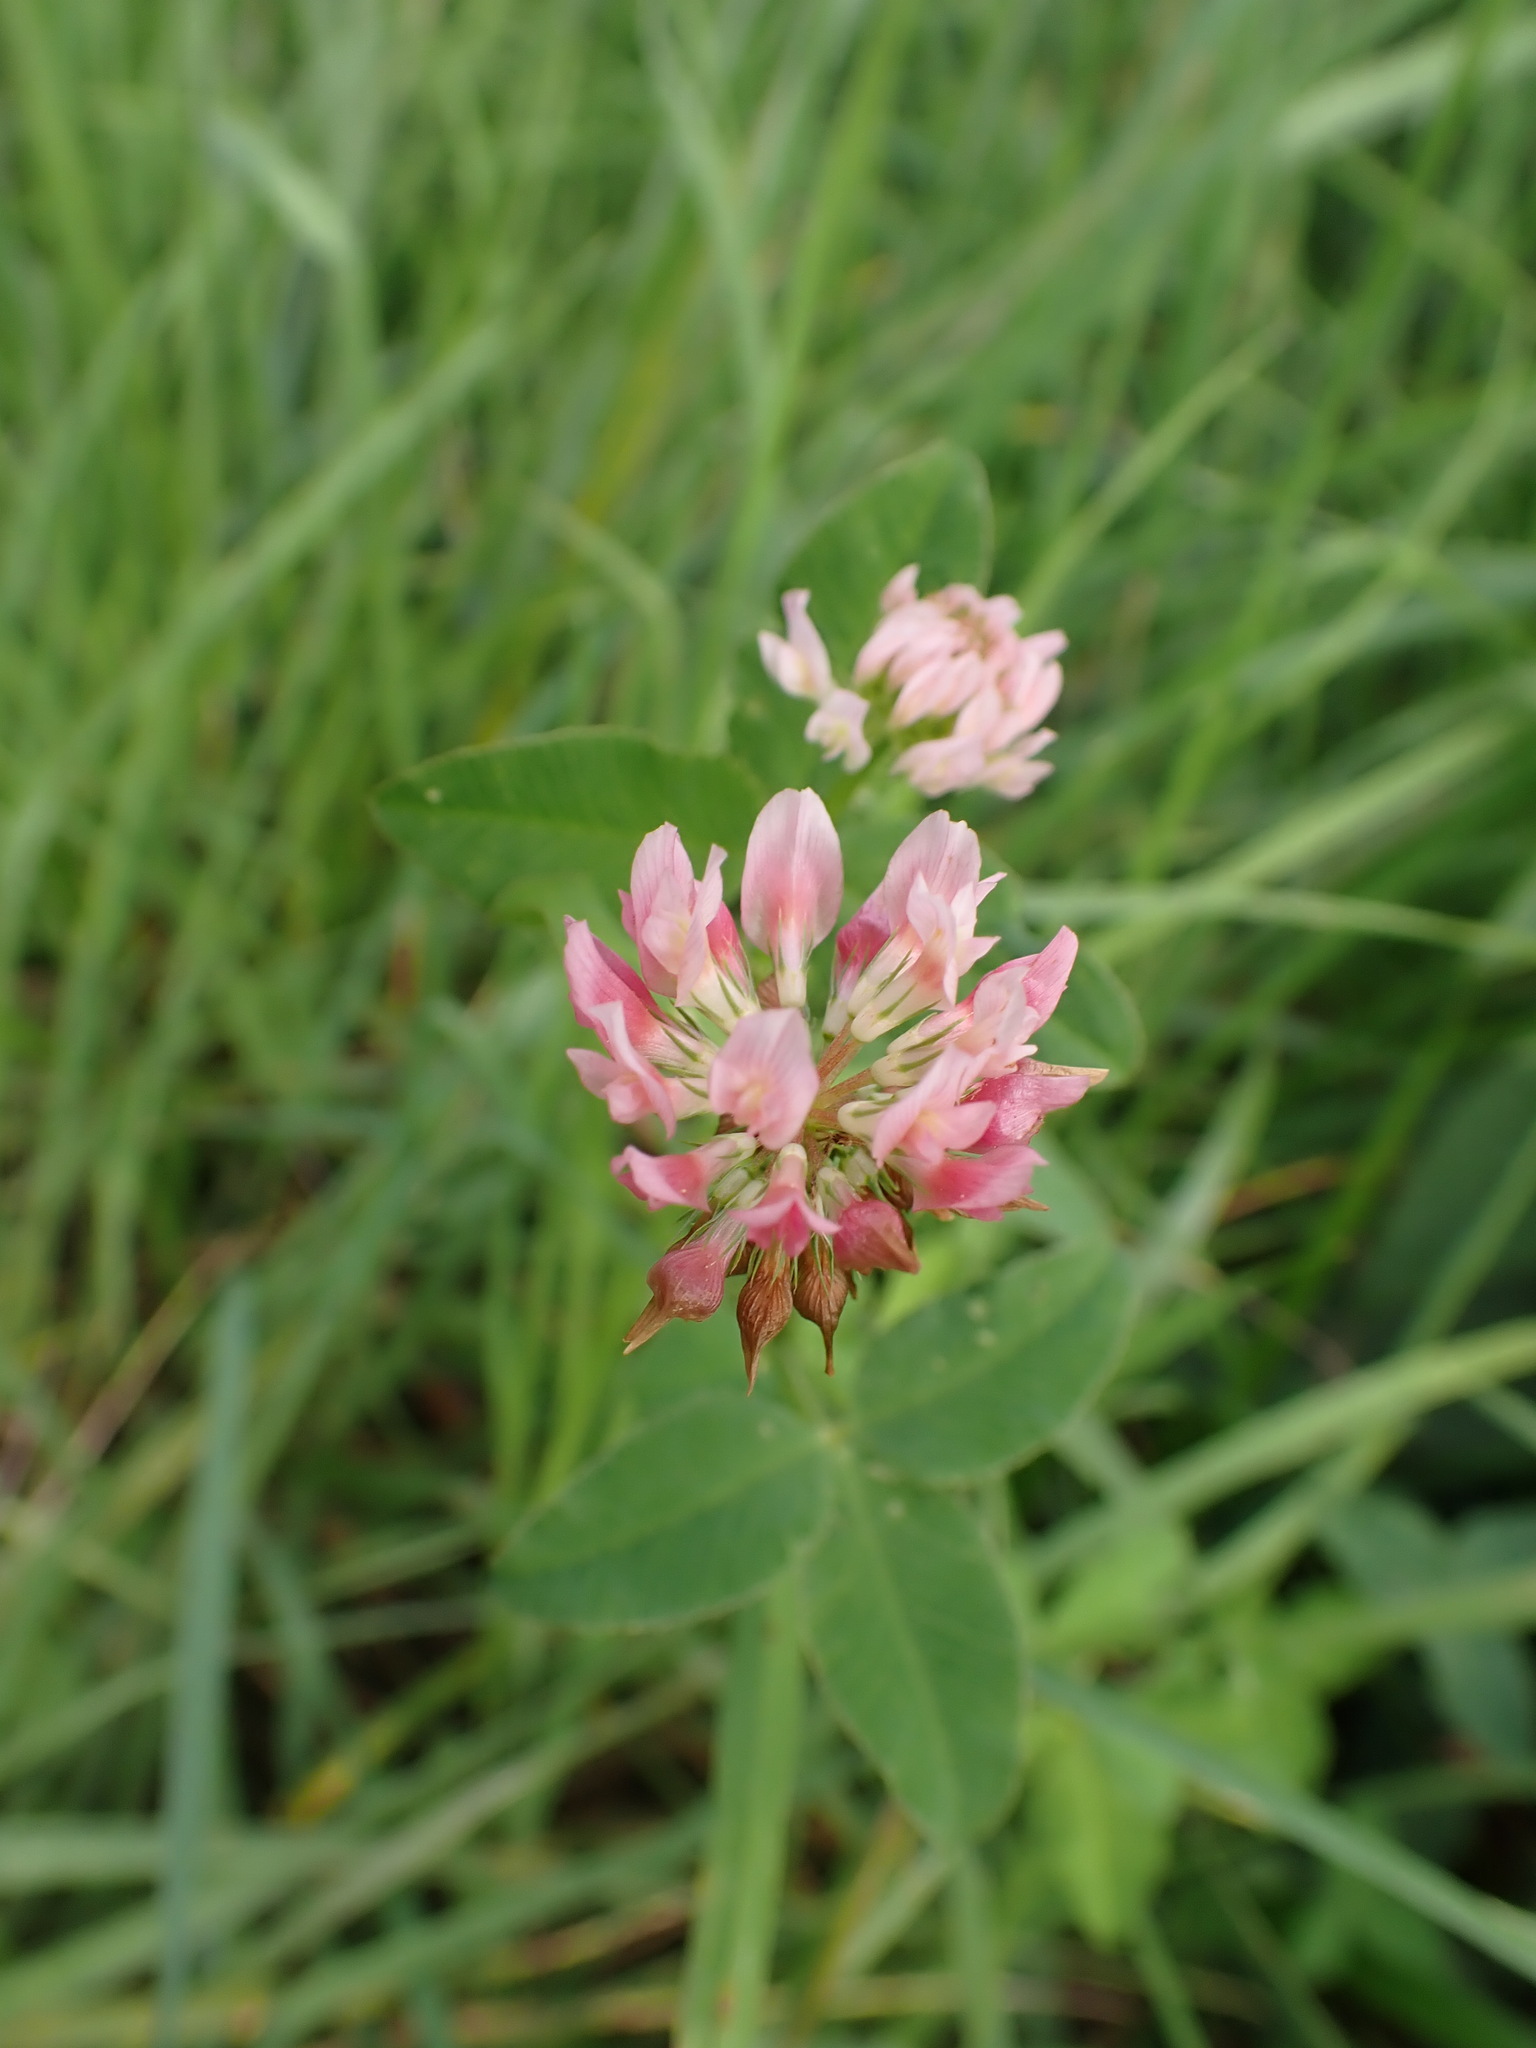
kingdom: Plantae
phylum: Tracheophyta
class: Magnoliopsida
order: Fabales
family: Fabaceae
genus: Trifolium
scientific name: Trifolium hybridum
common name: Alsike clover
